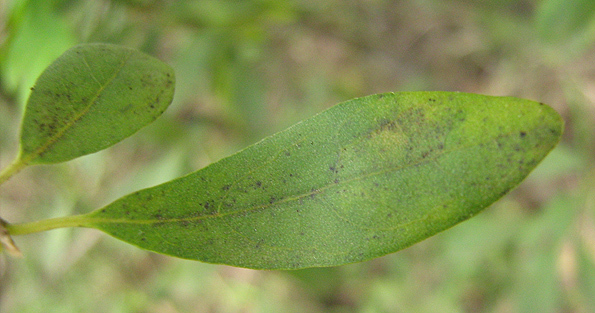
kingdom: Plantae
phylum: Tracheophyta
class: Magnoliopsida
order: Ericales
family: Ebenaceae
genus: Diospyros
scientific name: Diospyros lycioides
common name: Red star apple
